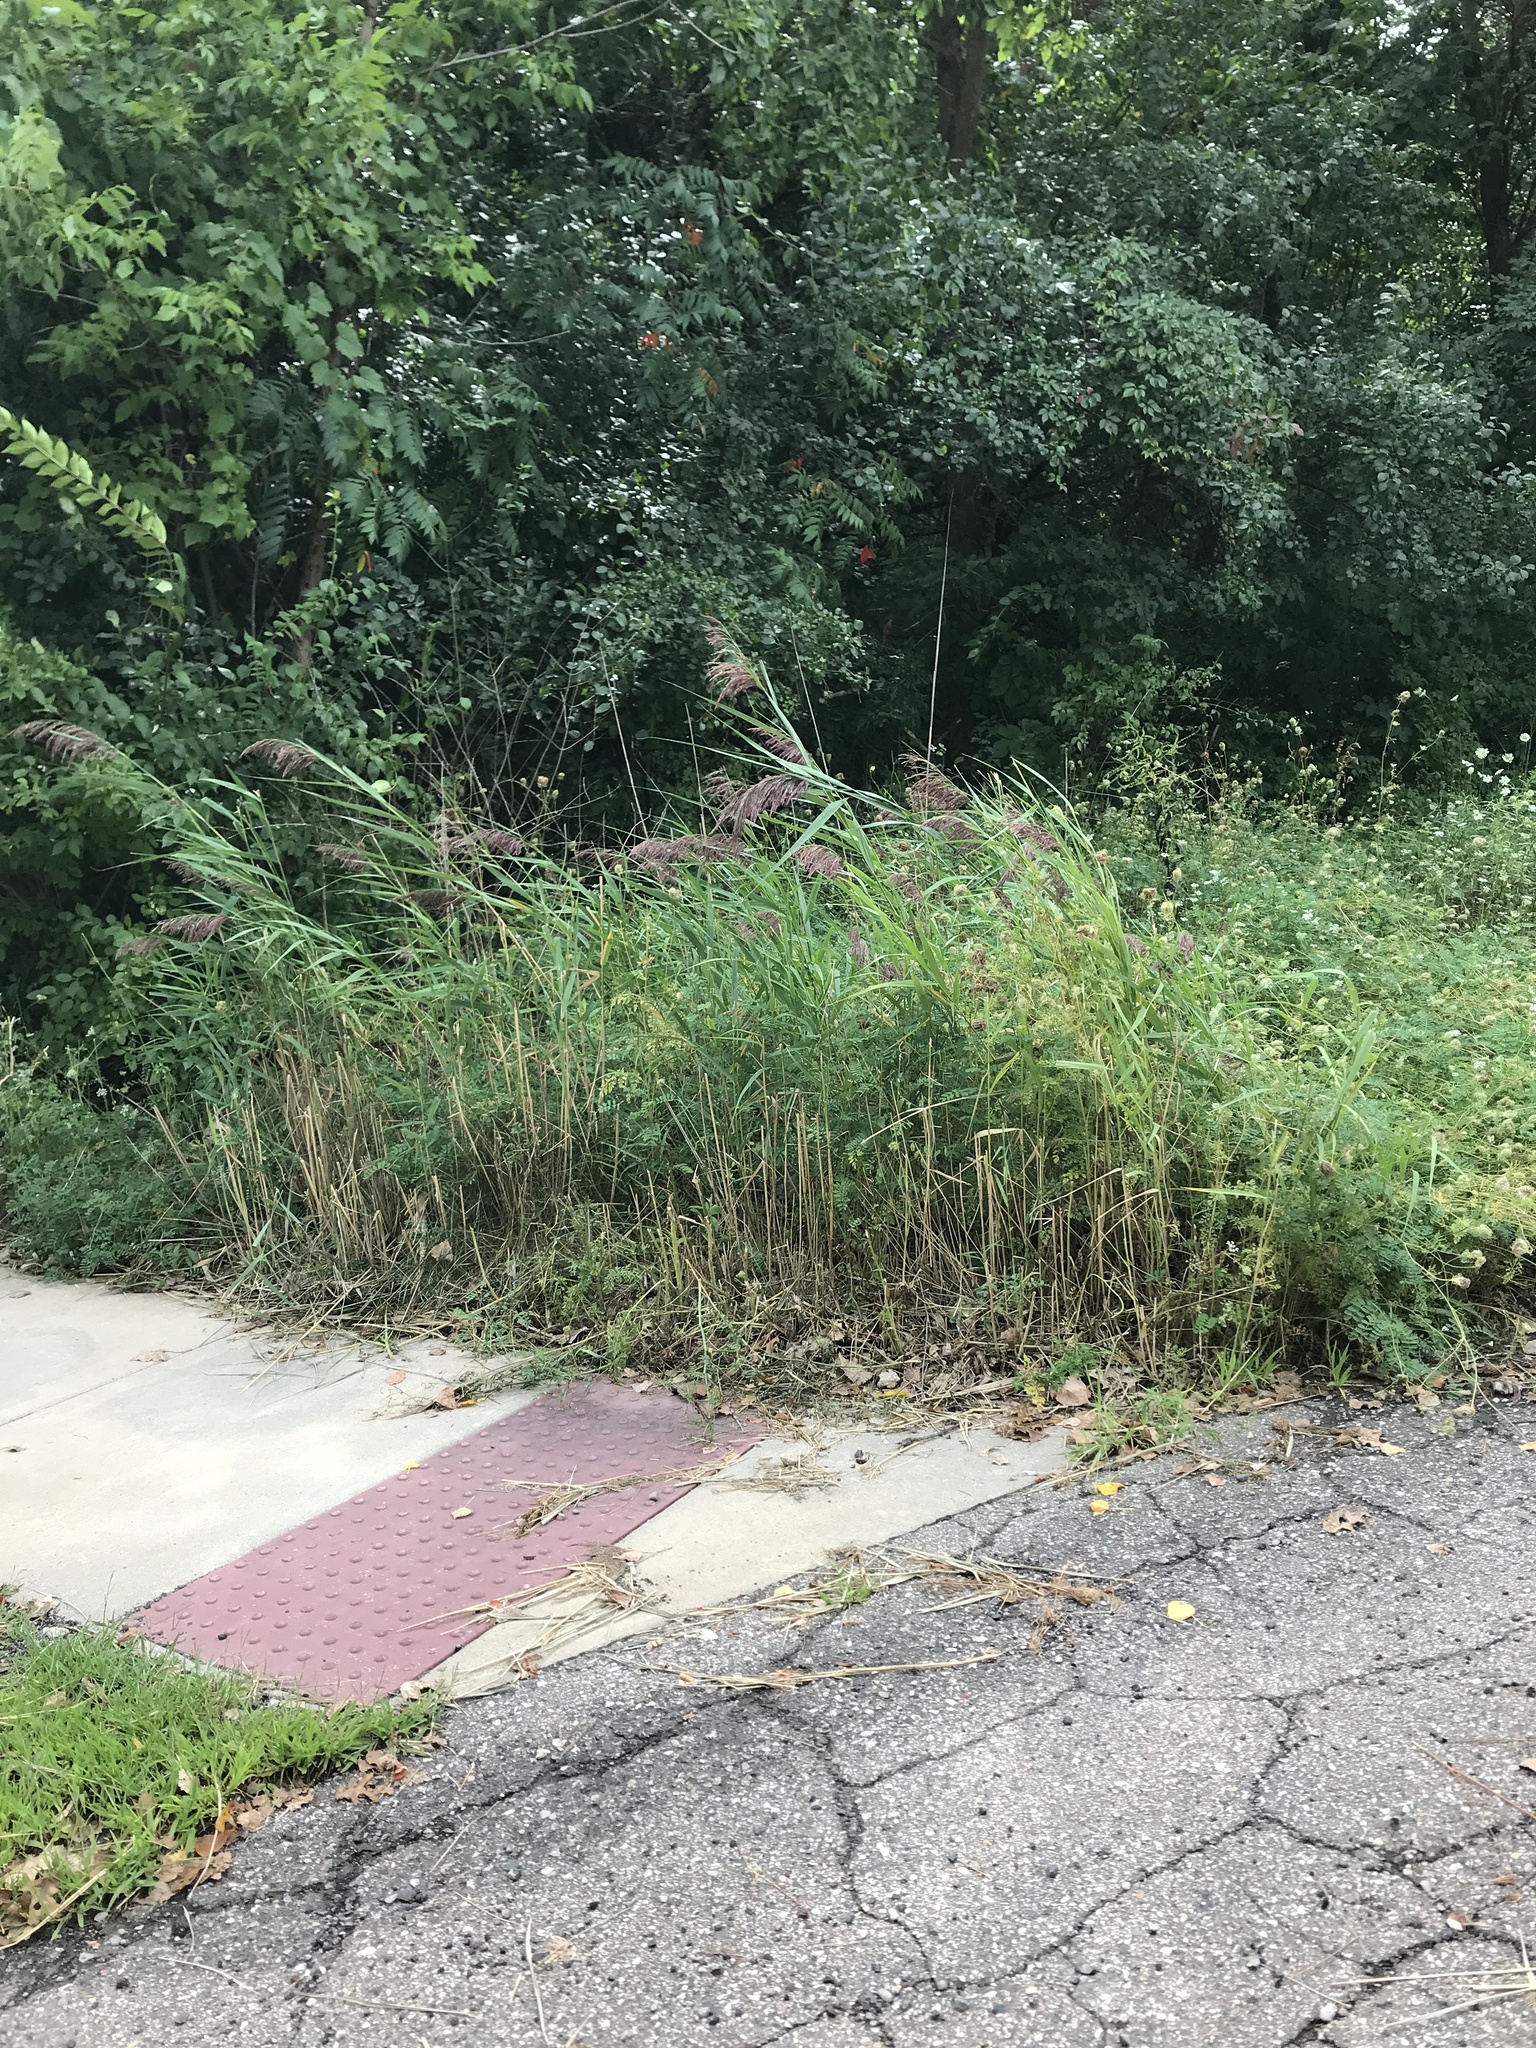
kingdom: Plantae
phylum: Tracheophyta
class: Liliopsida
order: Poales
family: Poaceae
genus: Phragmites
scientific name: Phragmites australis
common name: Common reed
